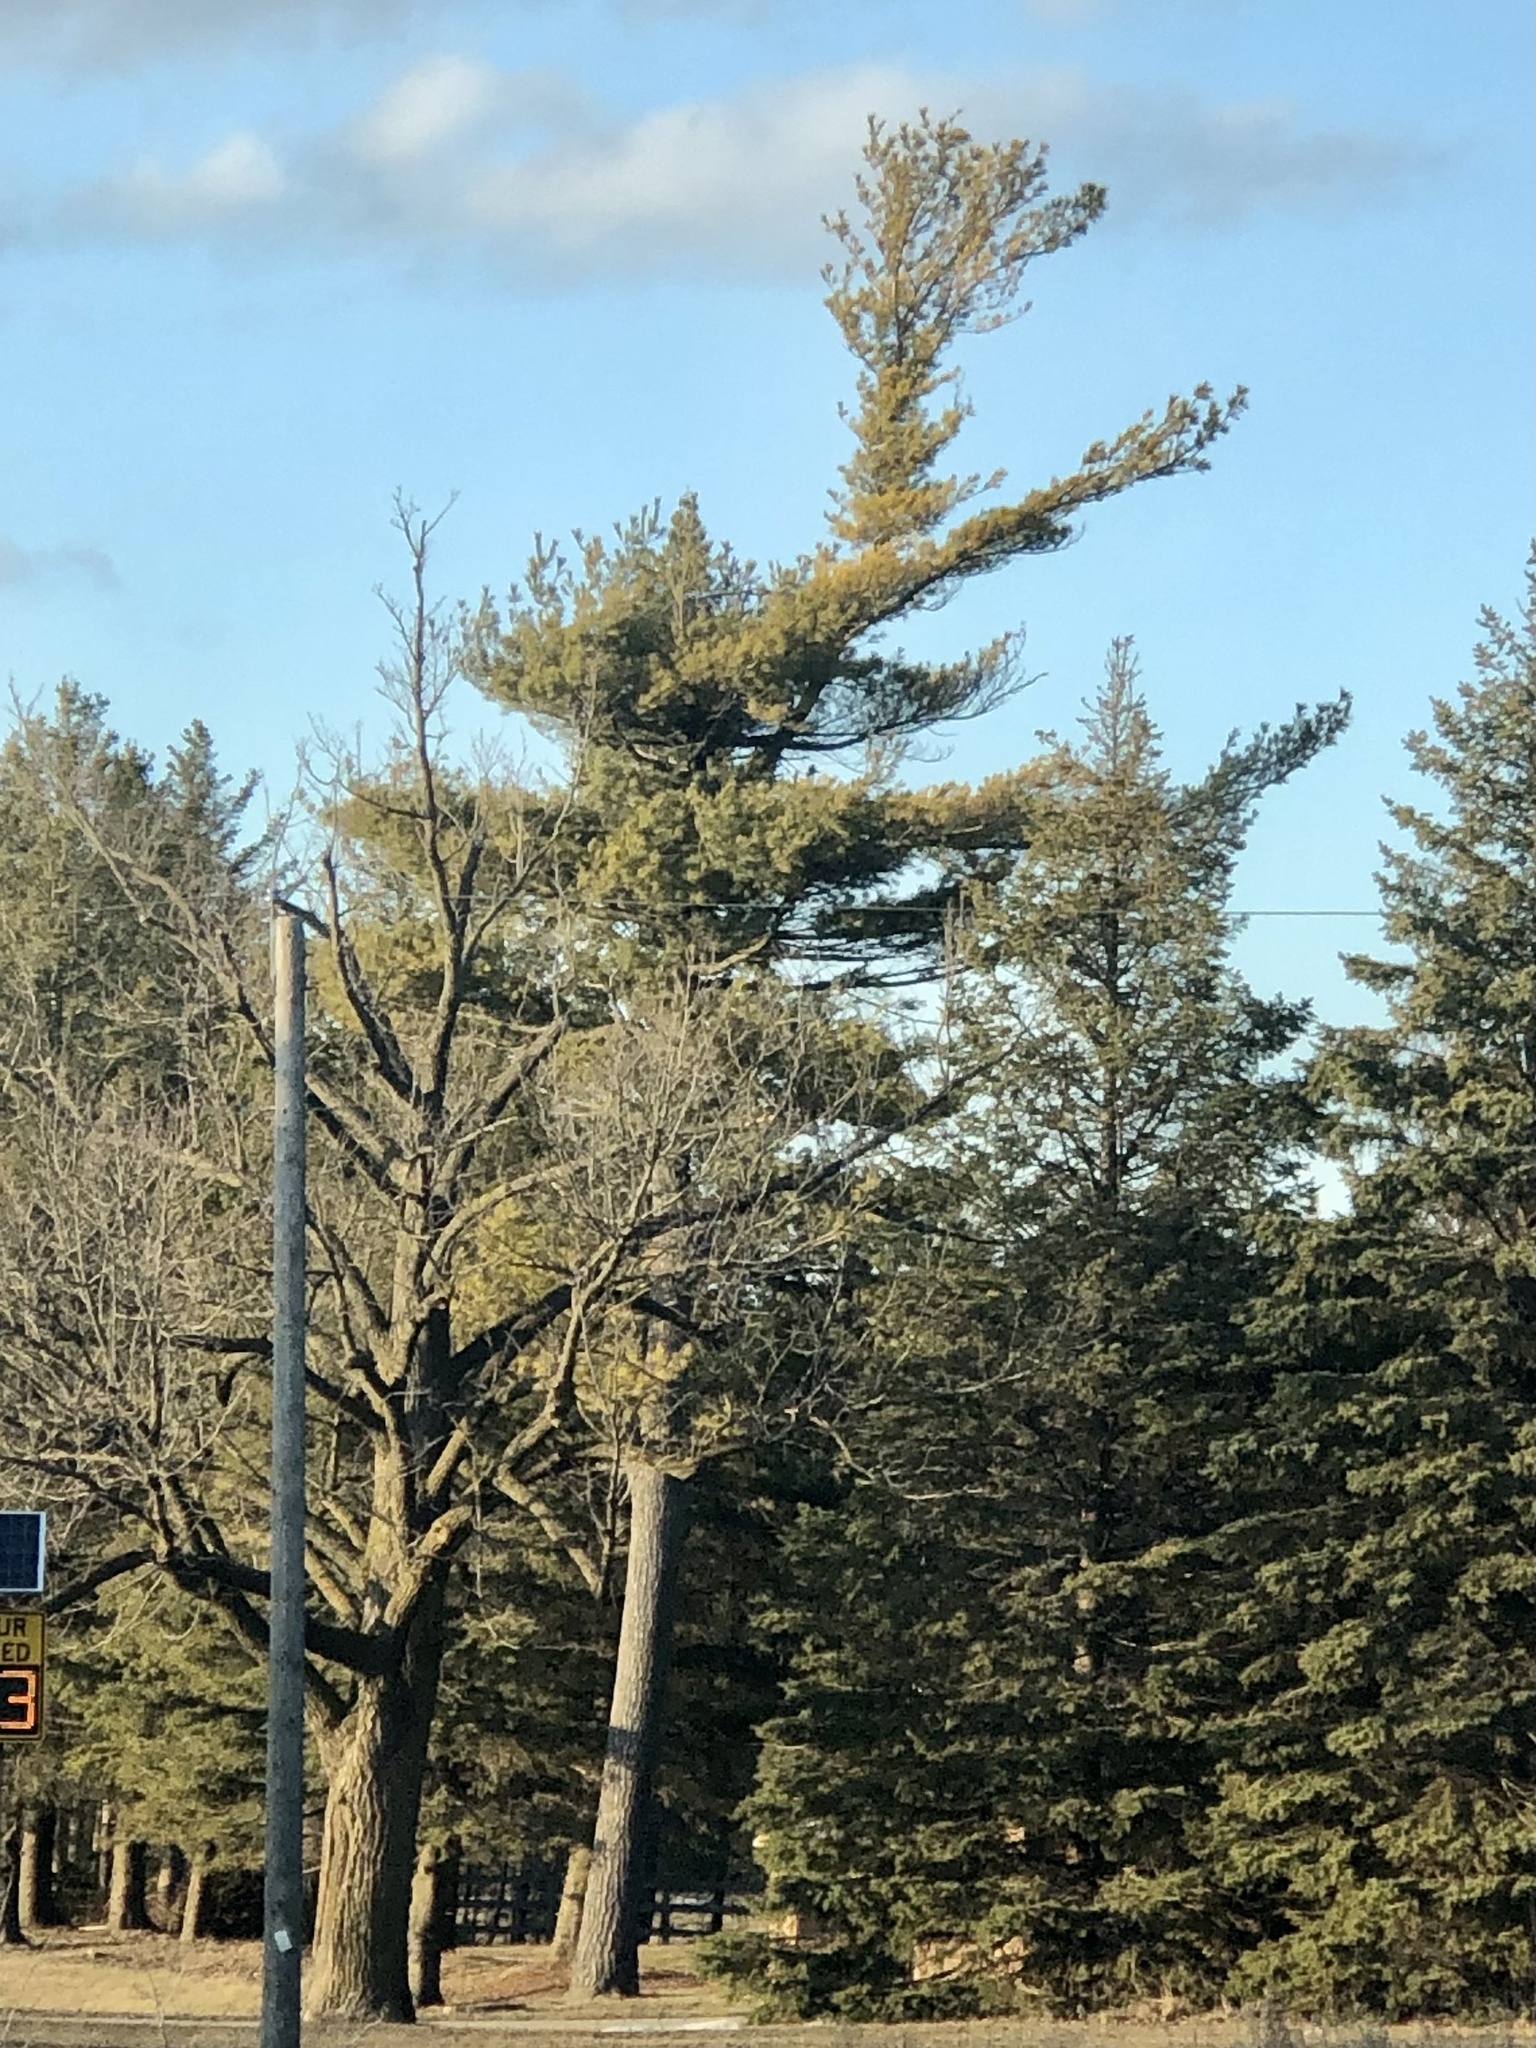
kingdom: Plantae
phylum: Tracheophyta
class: Pinopsida
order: Pinales
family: Pinaceae
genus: Pinus
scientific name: Pinus strobus
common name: Weymouth pine
